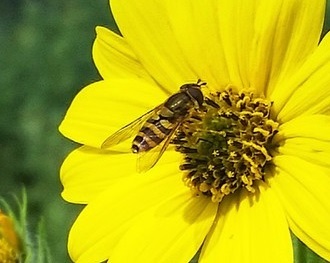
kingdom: Animalia
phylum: Arthropoda
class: Insecta
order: Diptera
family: Syrphidae
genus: Syrphus
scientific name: Syrphus
